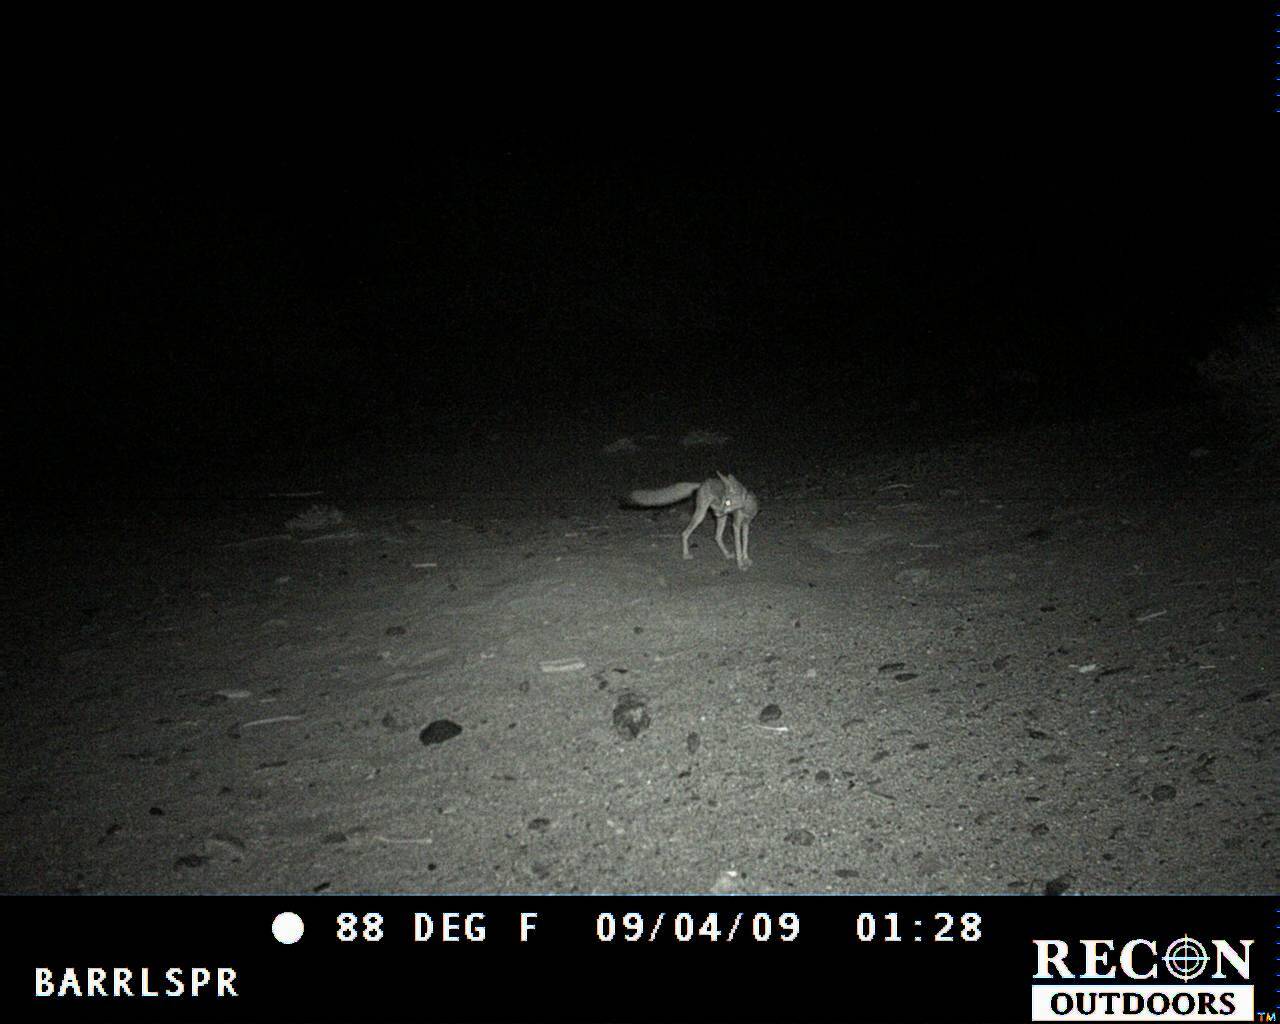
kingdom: Animalia
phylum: Chordata
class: Mammalia
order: Carnivora
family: Canidae
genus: Vulpes
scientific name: Vulpes macrotis
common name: Kit fox
